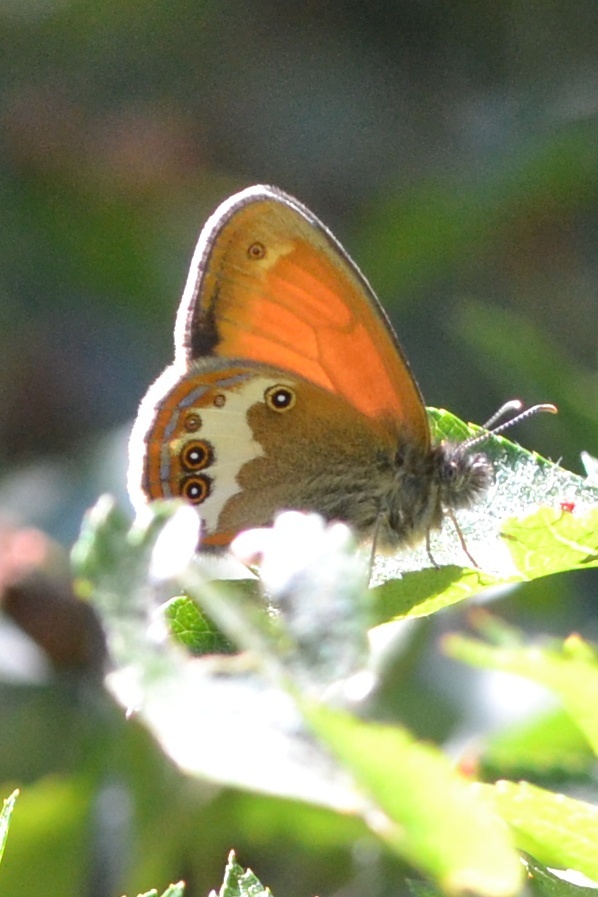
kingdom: Animalia
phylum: Arthropoda
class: Insecta
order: Lepidoptera
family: Nymphalidae
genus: Coenonympha
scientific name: Coenonympha arcania
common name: Pearly heath
